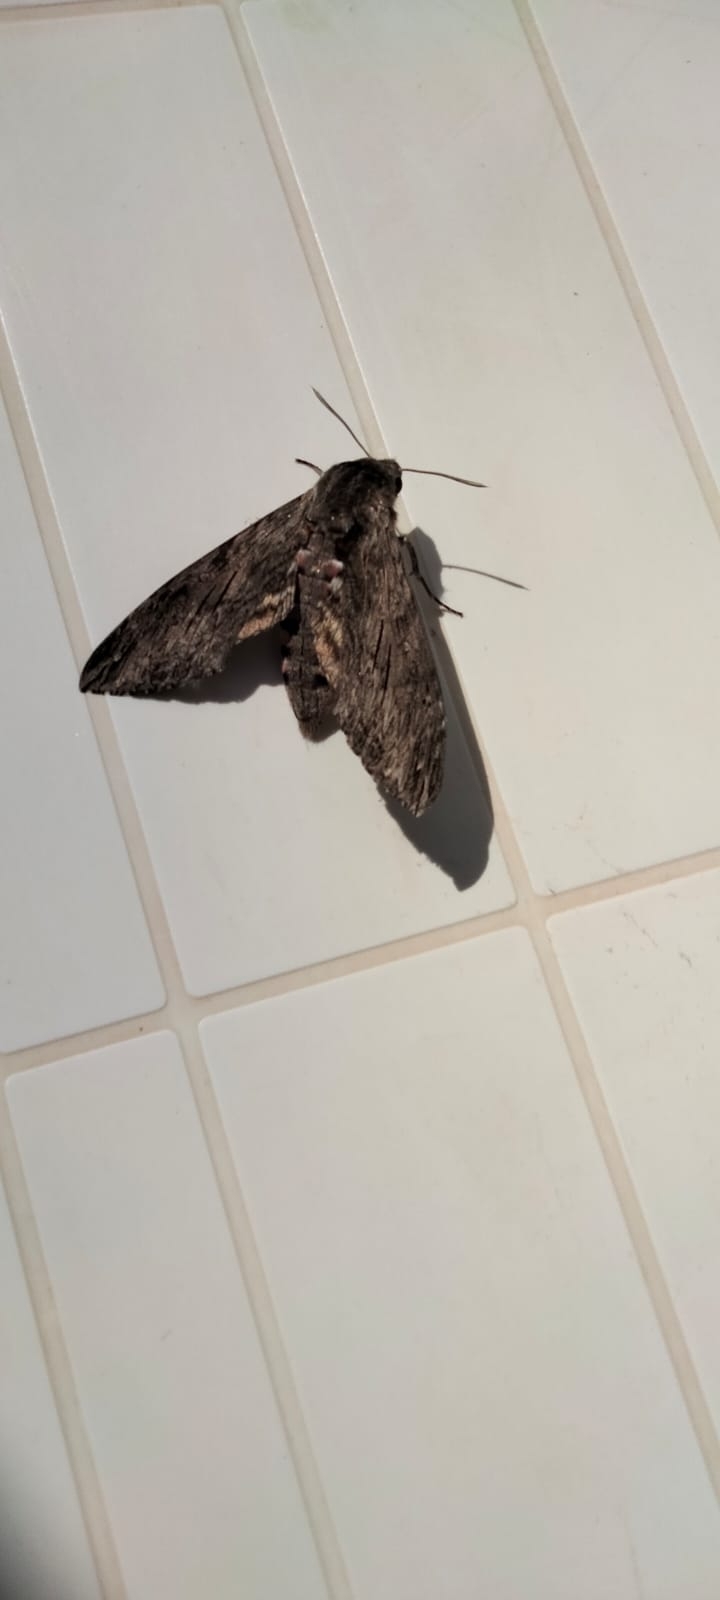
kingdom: Animalia
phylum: Arthropoda
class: Insecta
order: Lepidoptera
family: Sphingidae
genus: Agrius
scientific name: Agrius convolvuli
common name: Convolvulus hawkmoth
